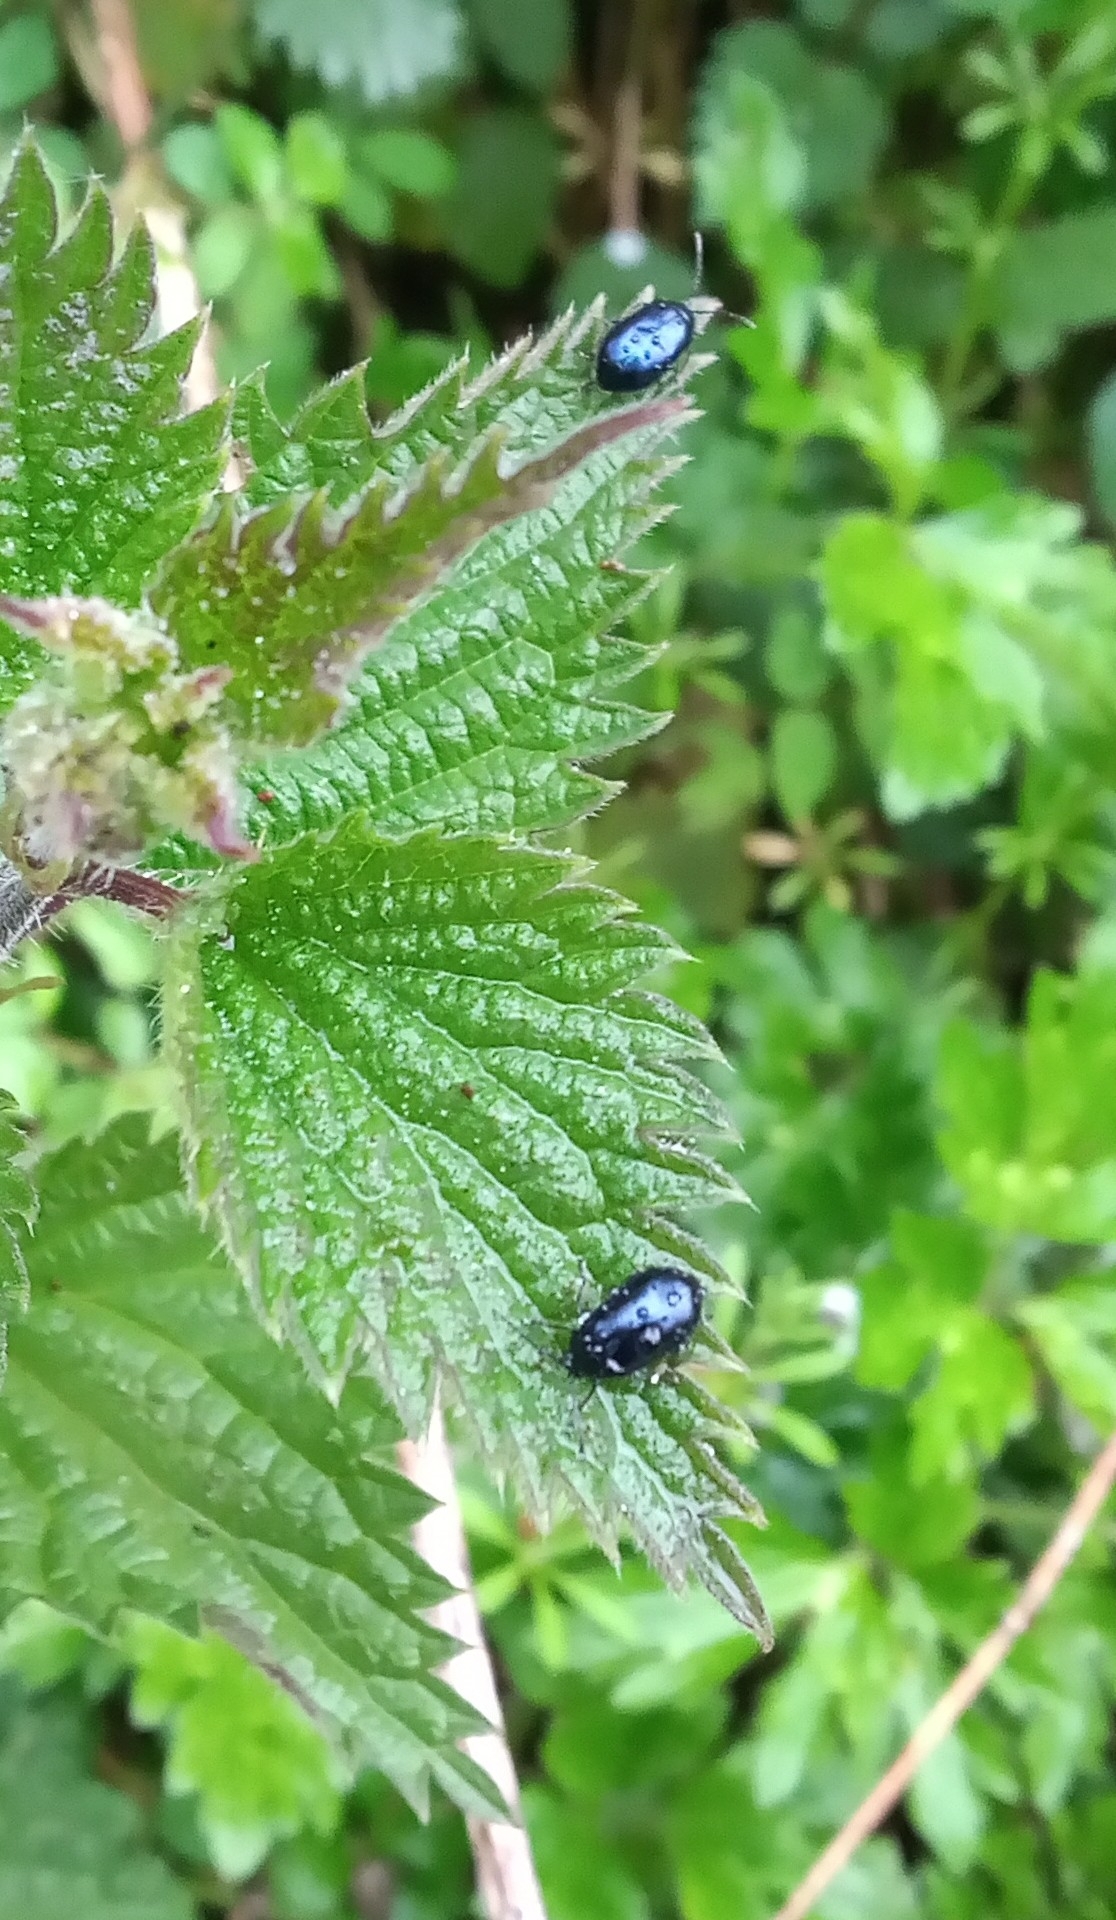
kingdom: Animalia
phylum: Arthropoda
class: Insecta
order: Coleoptera
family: Chrysomelidae
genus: Agelastica
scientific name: Agelastica alni
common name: Alder leaf beetle
